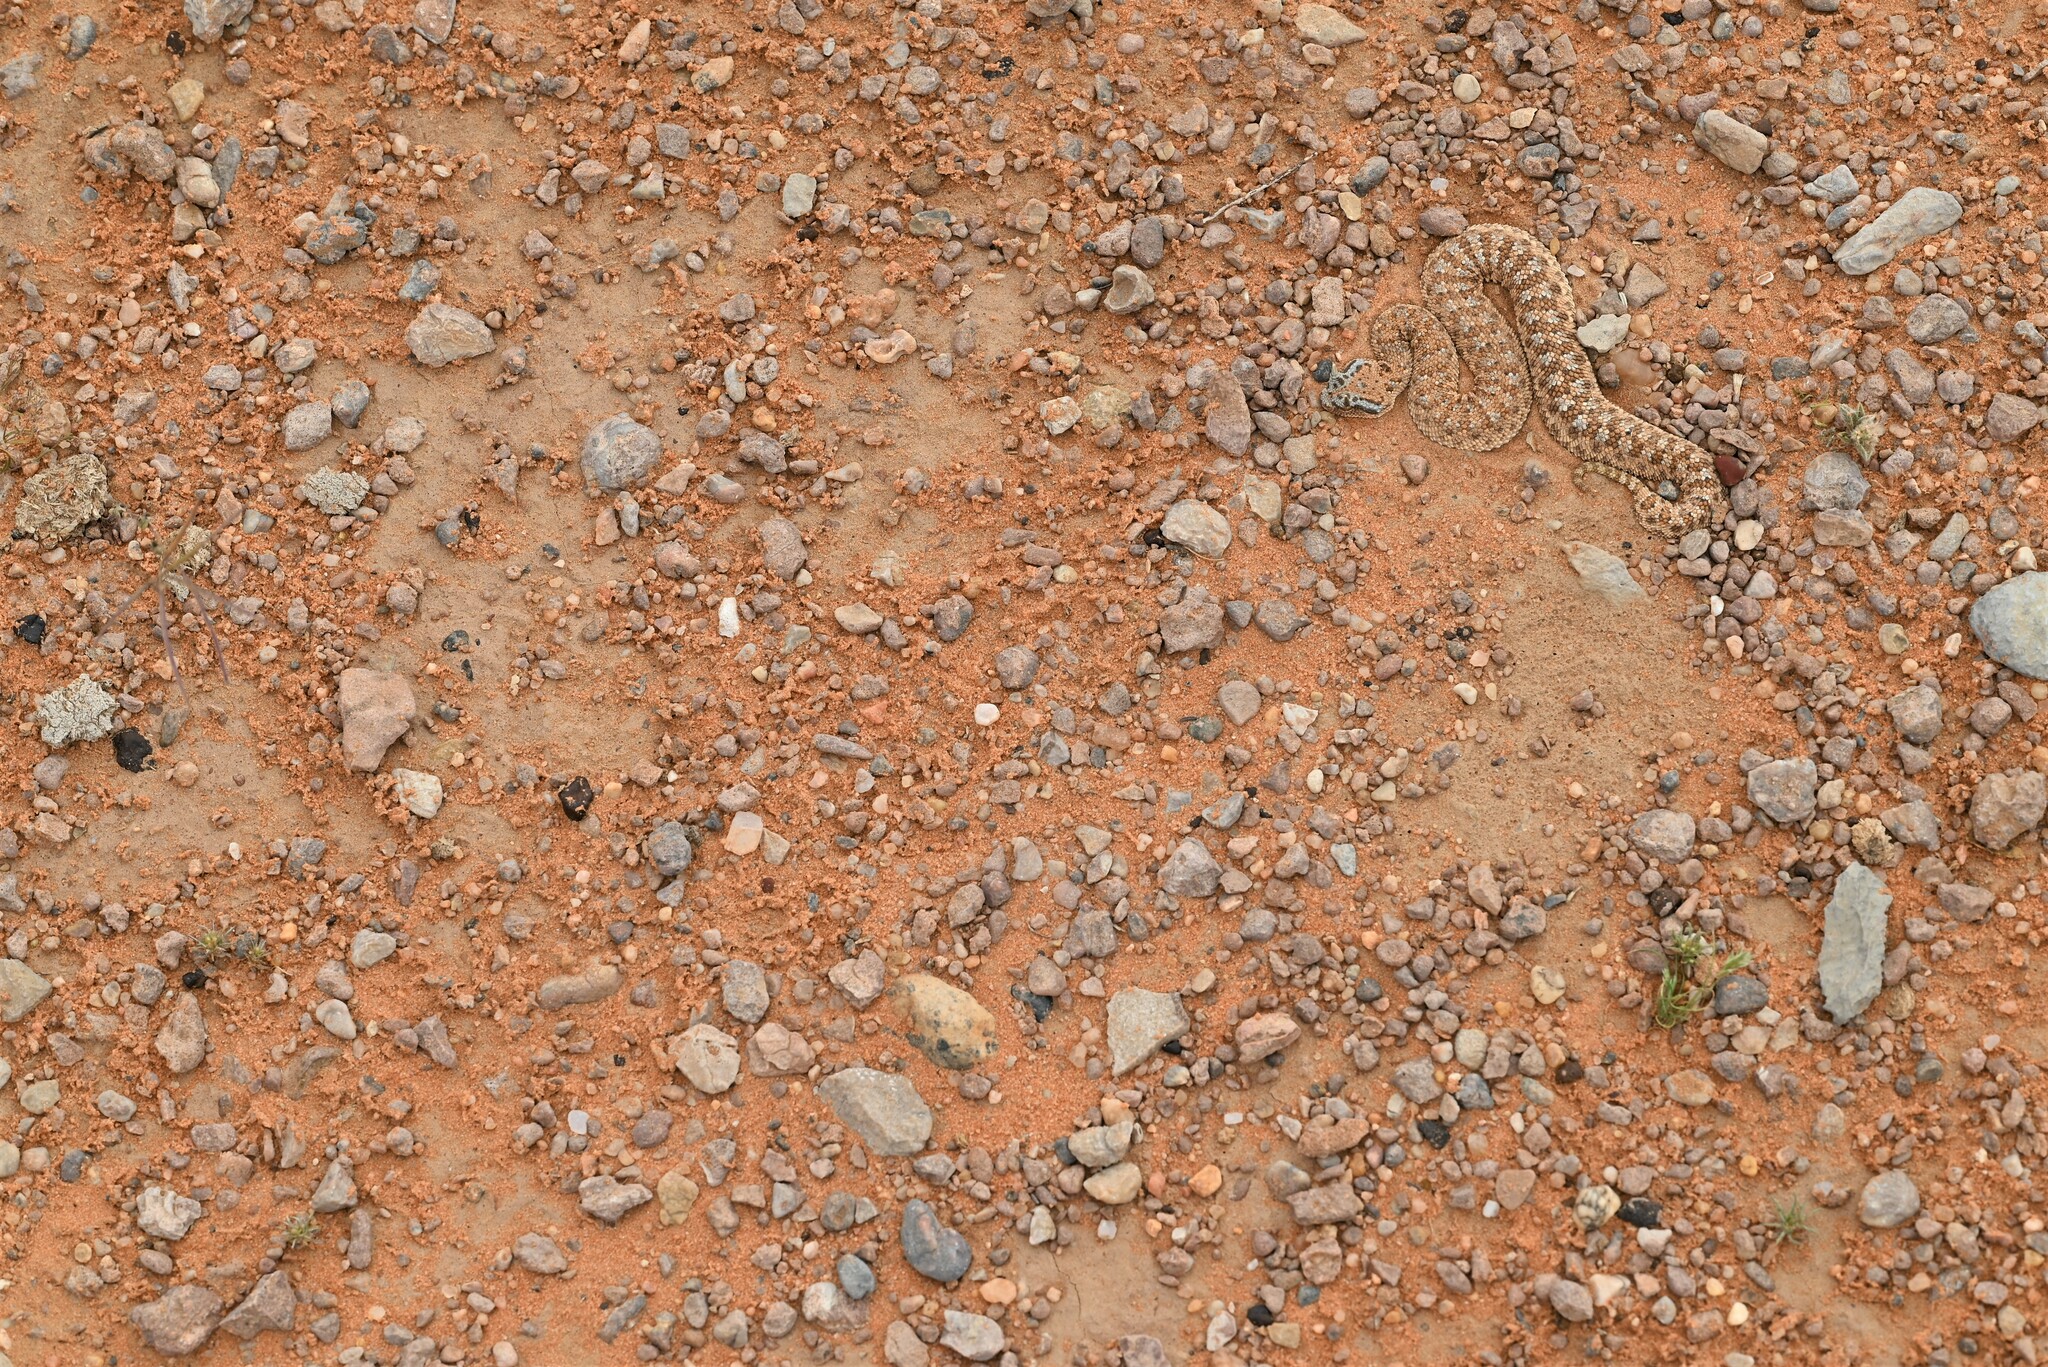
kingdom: Animalia
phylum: Chordata
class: Squamata
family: Viperidae
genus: Cerastes
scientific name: Cerastes gasperettii
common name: Arabian horned viper
